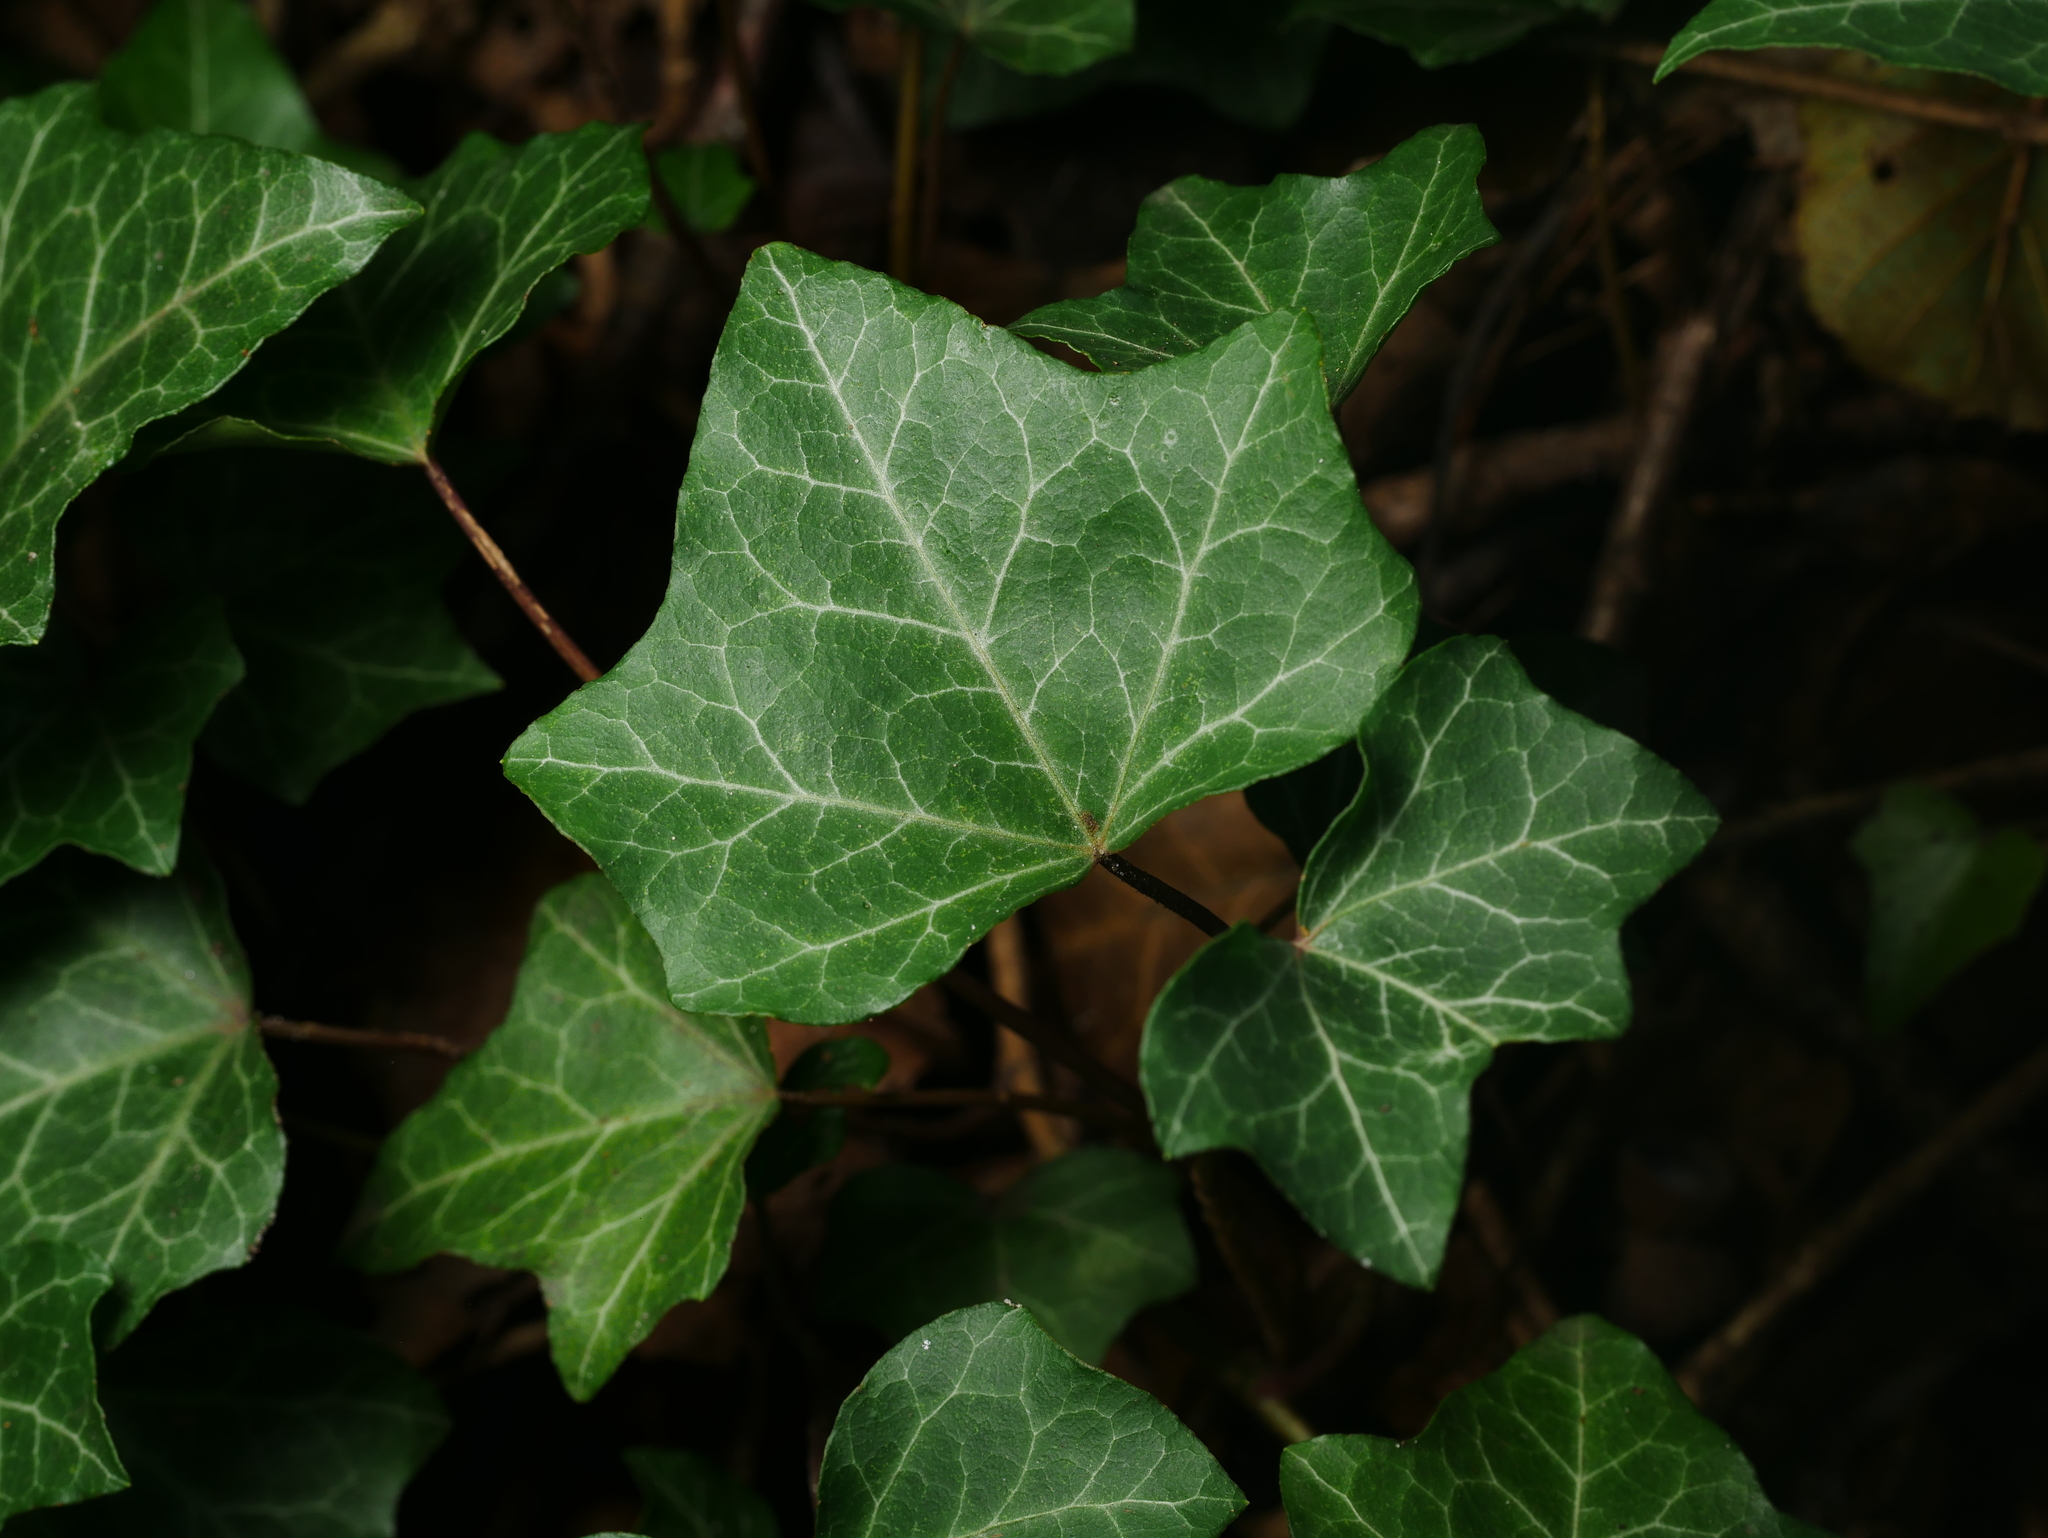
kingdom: Plantae
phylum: Tracheophyta
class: Magnoliopsida
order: Apiales
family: Araliaceae
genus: Hedera
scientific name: Hedera helix
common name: Ivy
